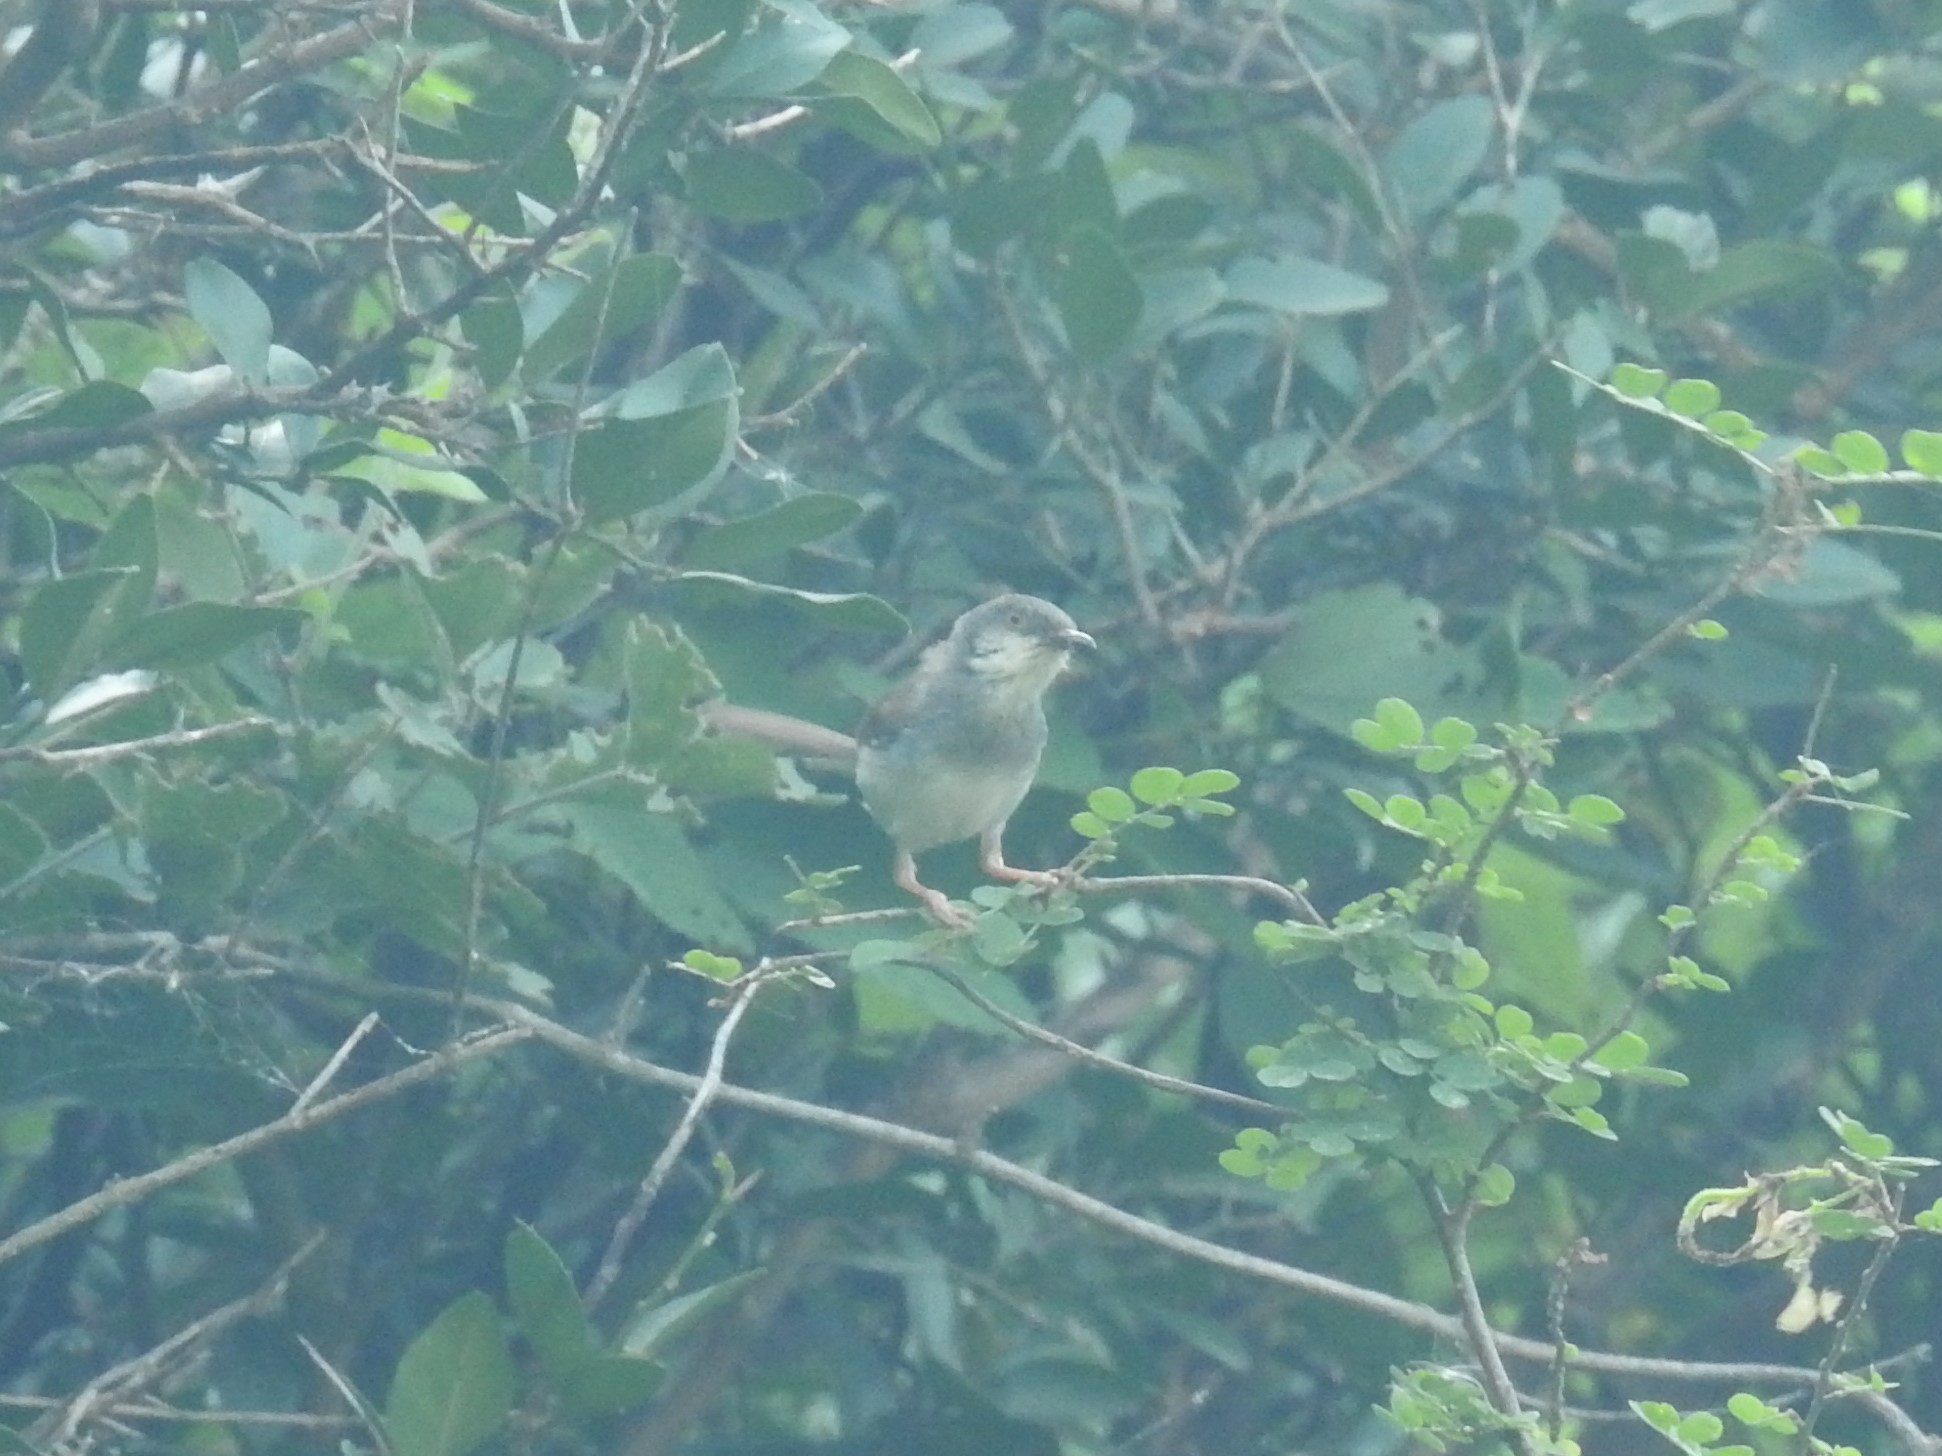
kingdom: Animalia
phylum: Chordata
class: Aves
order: Passeriformes
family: Cisticolidae
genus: Prinia
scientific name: Prinia hodgsonii
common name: Grey-breasted prinia
